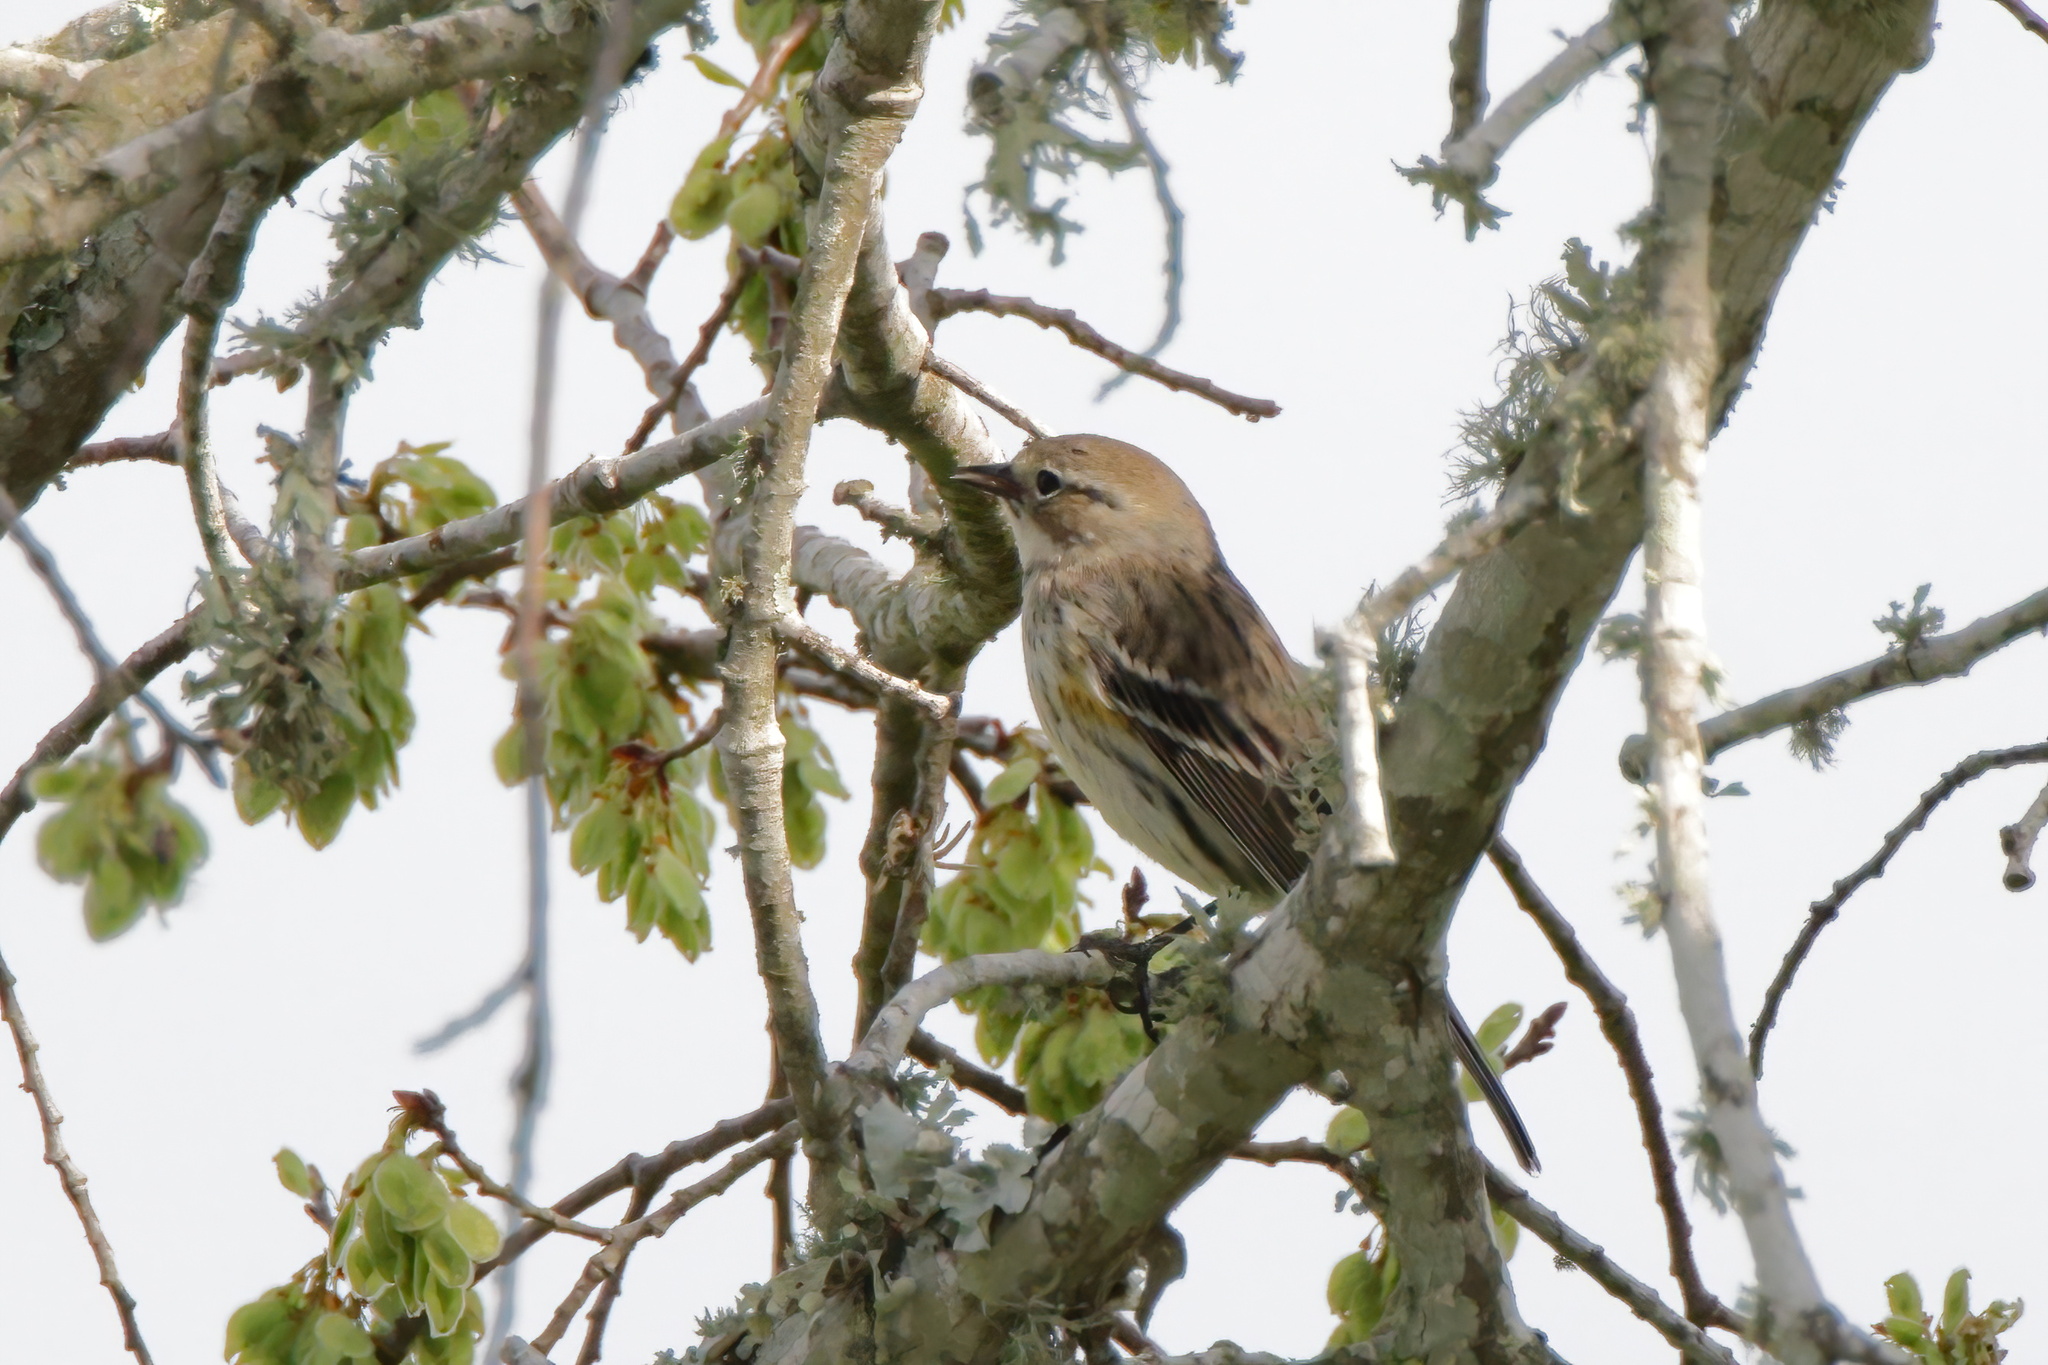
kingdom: Animalia
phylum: Chordata
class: Aves
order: Passeriformes
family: Parulidae
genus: Setophaga
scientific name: Setophaga coronata
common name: Myrtle warbler
